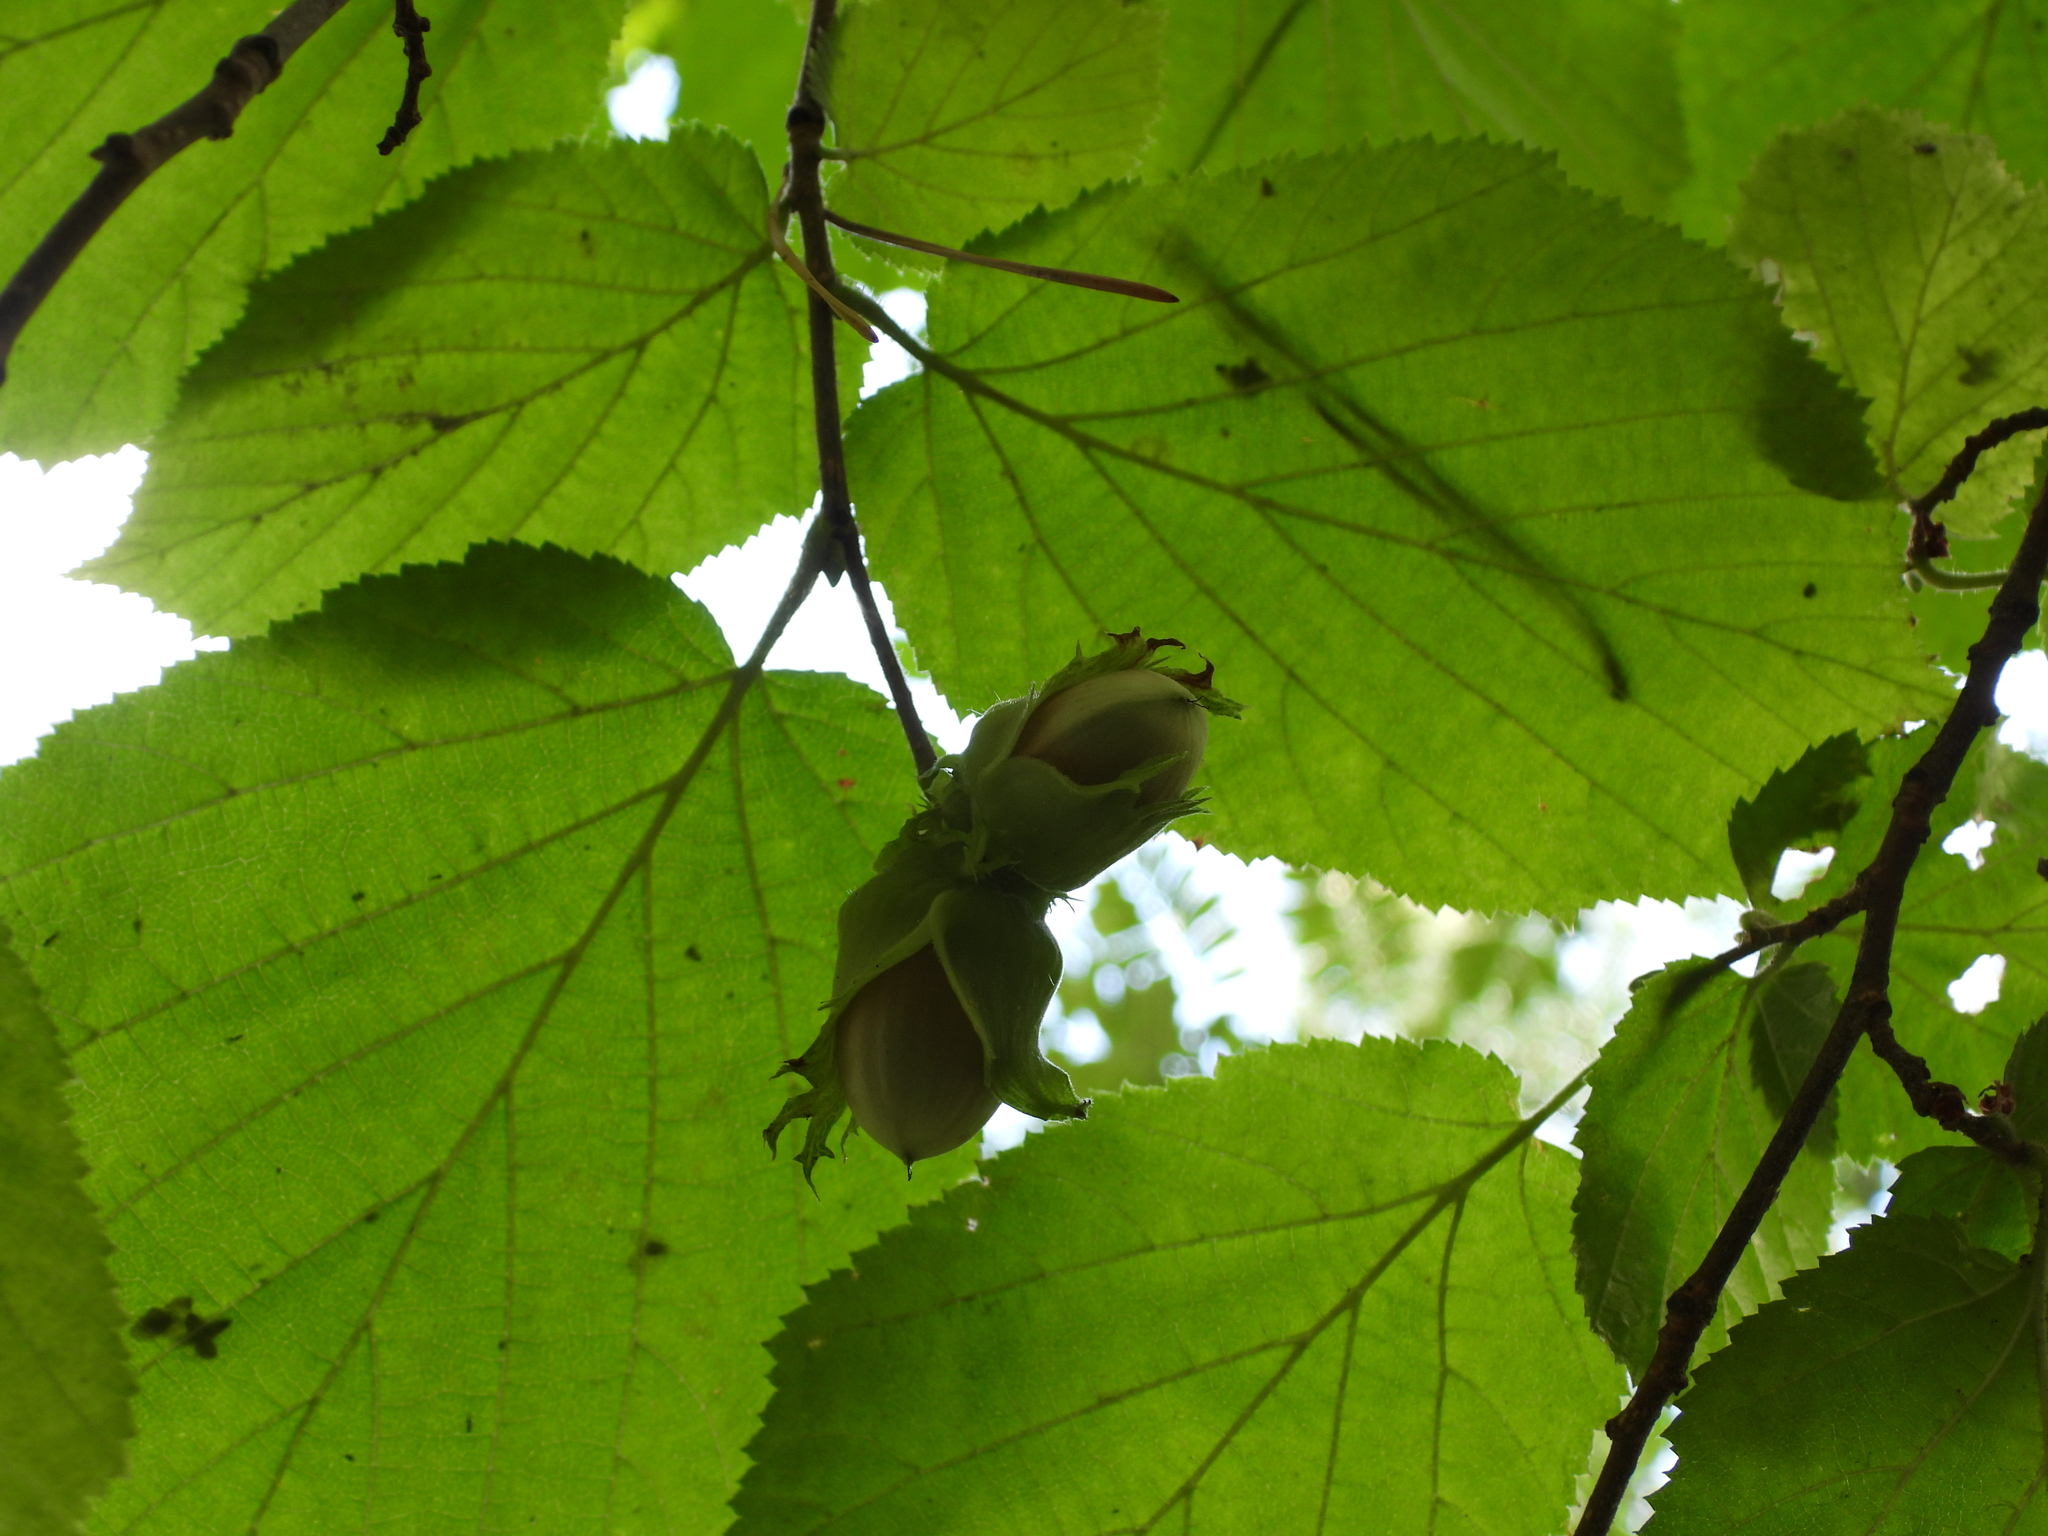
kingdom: Plantae
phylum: Tracheophyta
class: Magnoliopsida
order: Fagales
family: Betulaceae
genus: Corylus
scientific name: Corylus avellana
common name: European hazel
